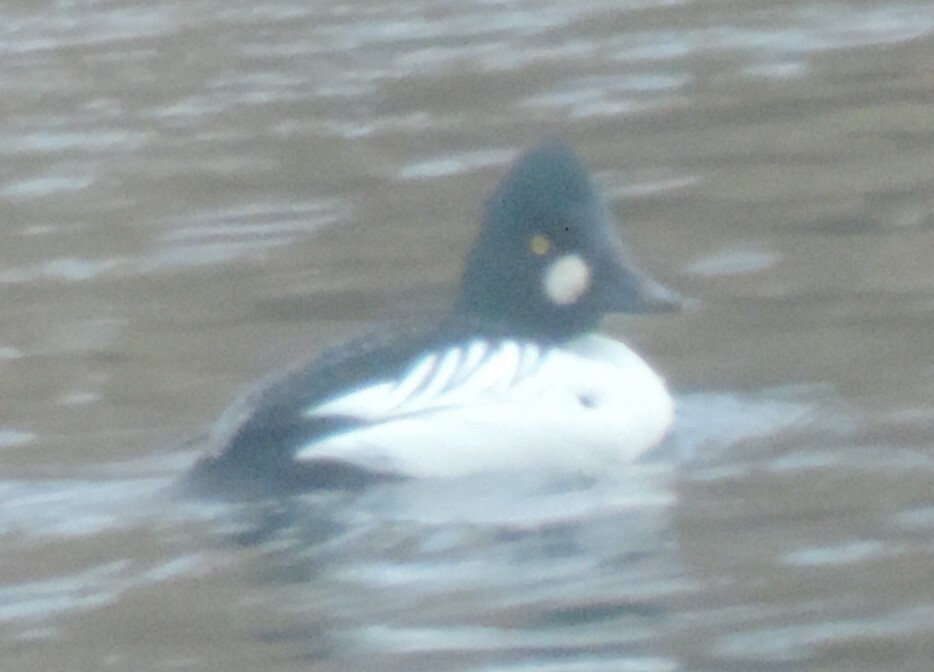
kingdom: Animalia
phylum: Chordata
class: Aves
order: Anseriformes
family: Anatidae
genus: Bucephala
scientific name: Bucephala clangula
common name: Common goldeneye
